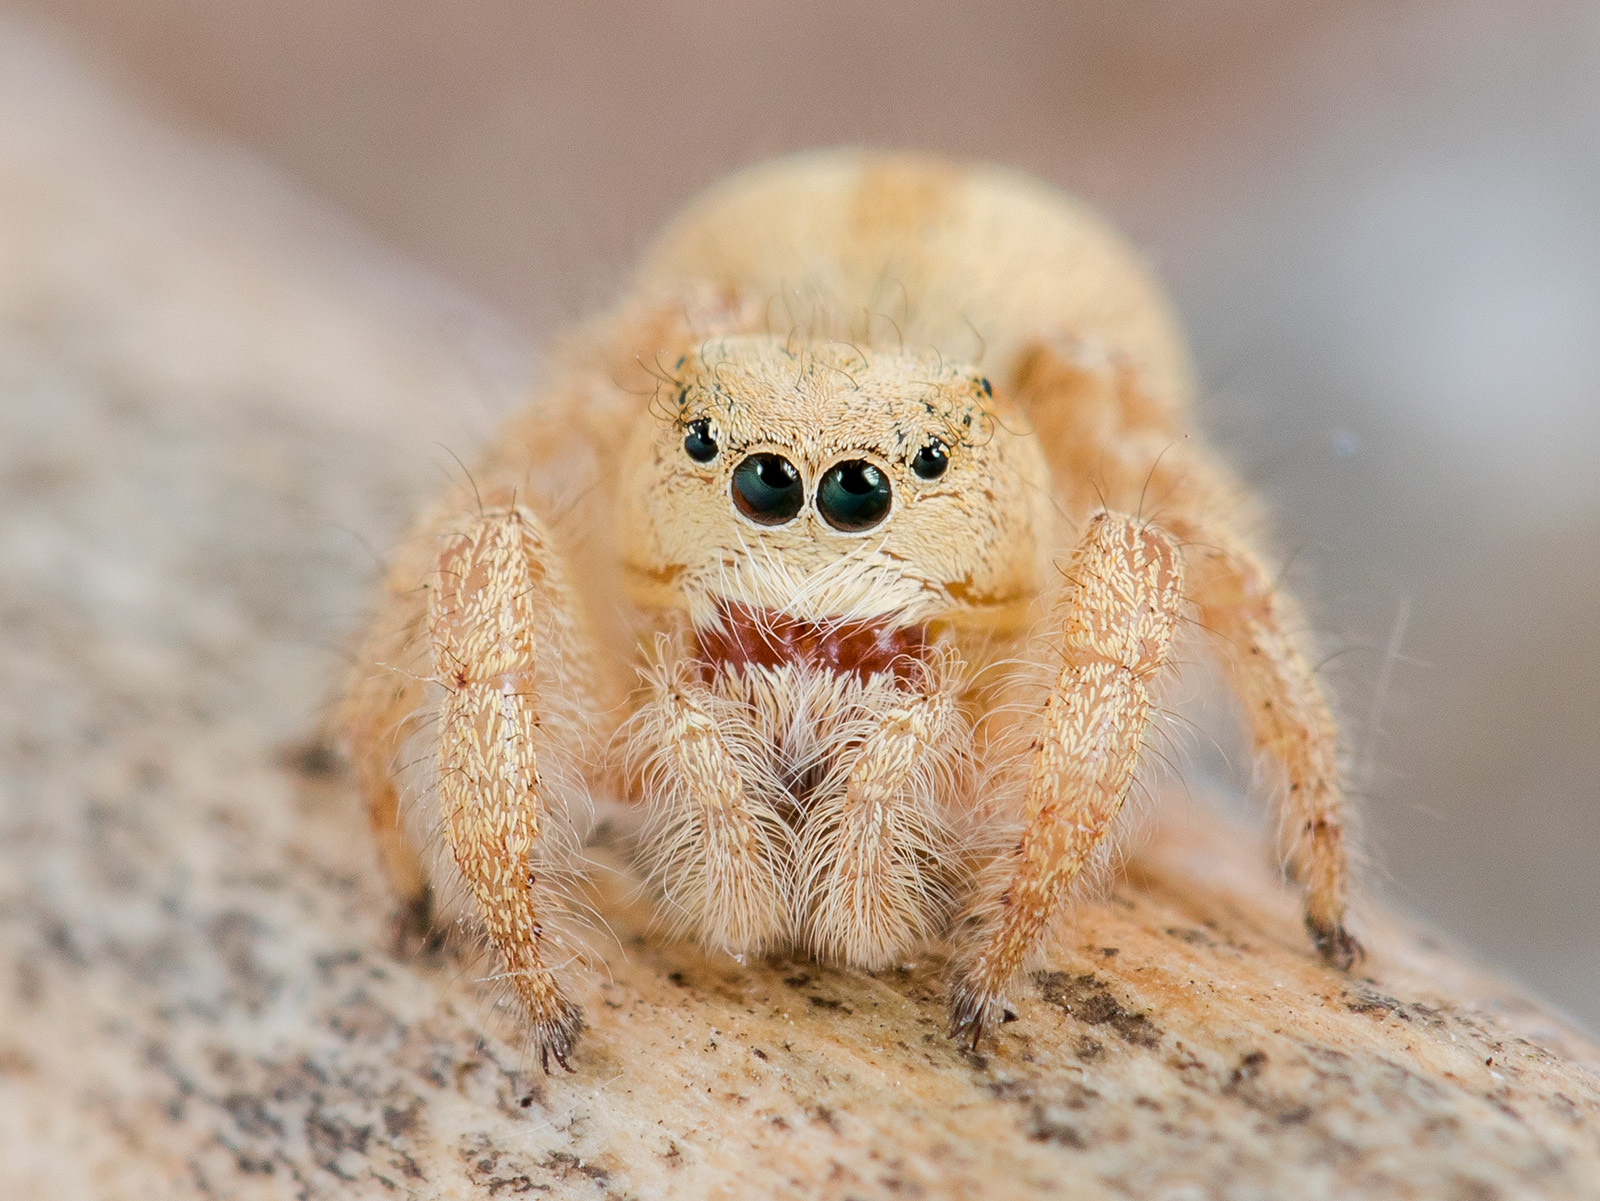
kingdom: Animalia
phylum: Arthropoda
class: Arachnida
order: Araneae
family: Salticidae
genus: Pseudomogrus
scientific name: Pseudomogrus zhilgaensis
